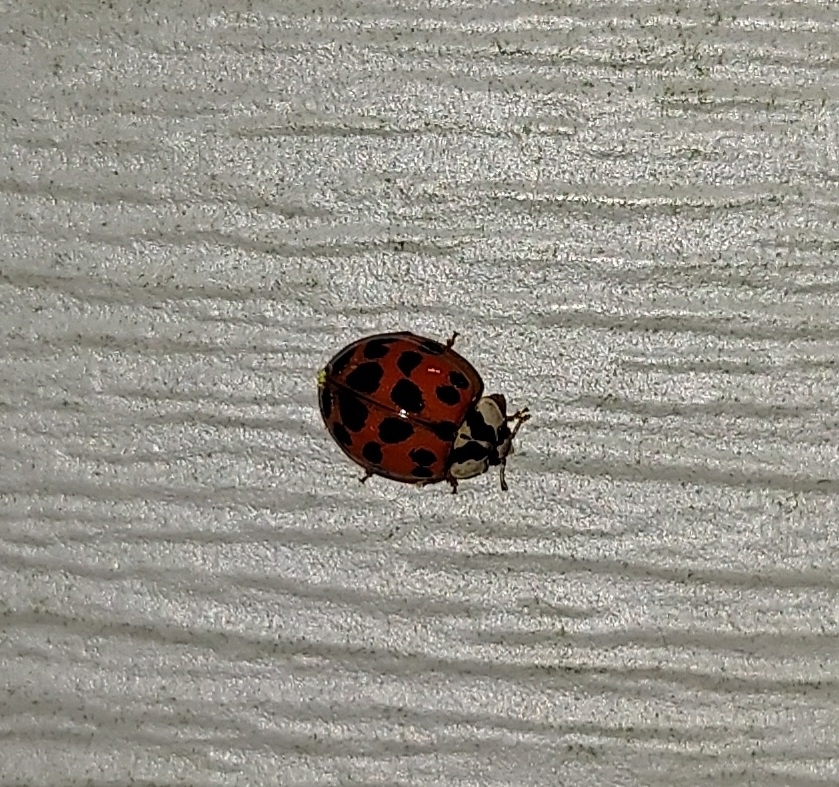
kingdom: Fungi
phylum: Ascomycota
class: Laboulbeniomycetes
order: Laboulbeniales
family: Laboulbeniaceae
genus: Hesperomyces
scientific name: Hesperomyces harmoniae
